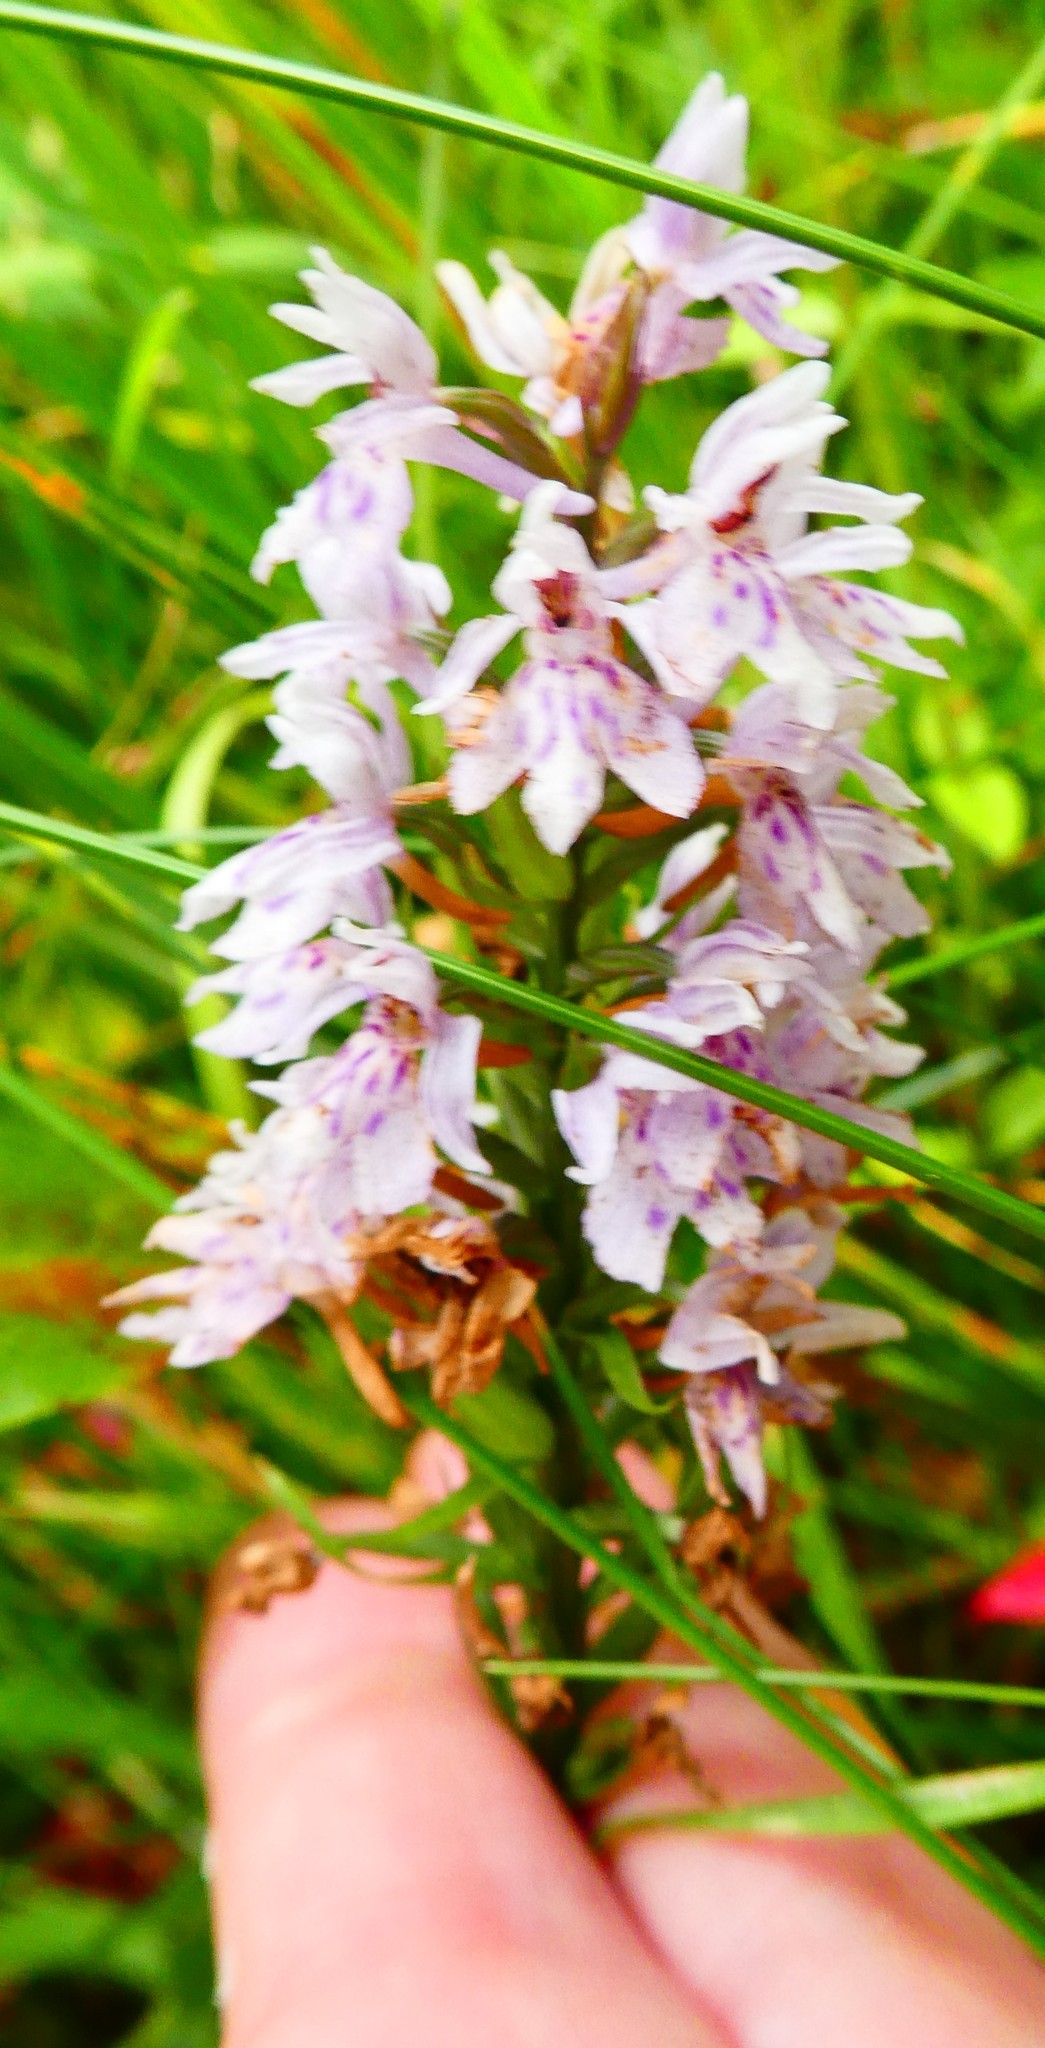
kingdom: Plantae
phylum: Tracheophyta
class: Liliopsida
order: Asparagales
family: Orchidaceae
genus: Dactylorhiza
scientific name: Dactylorhiza maculata
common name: Heath spotted-orchid
